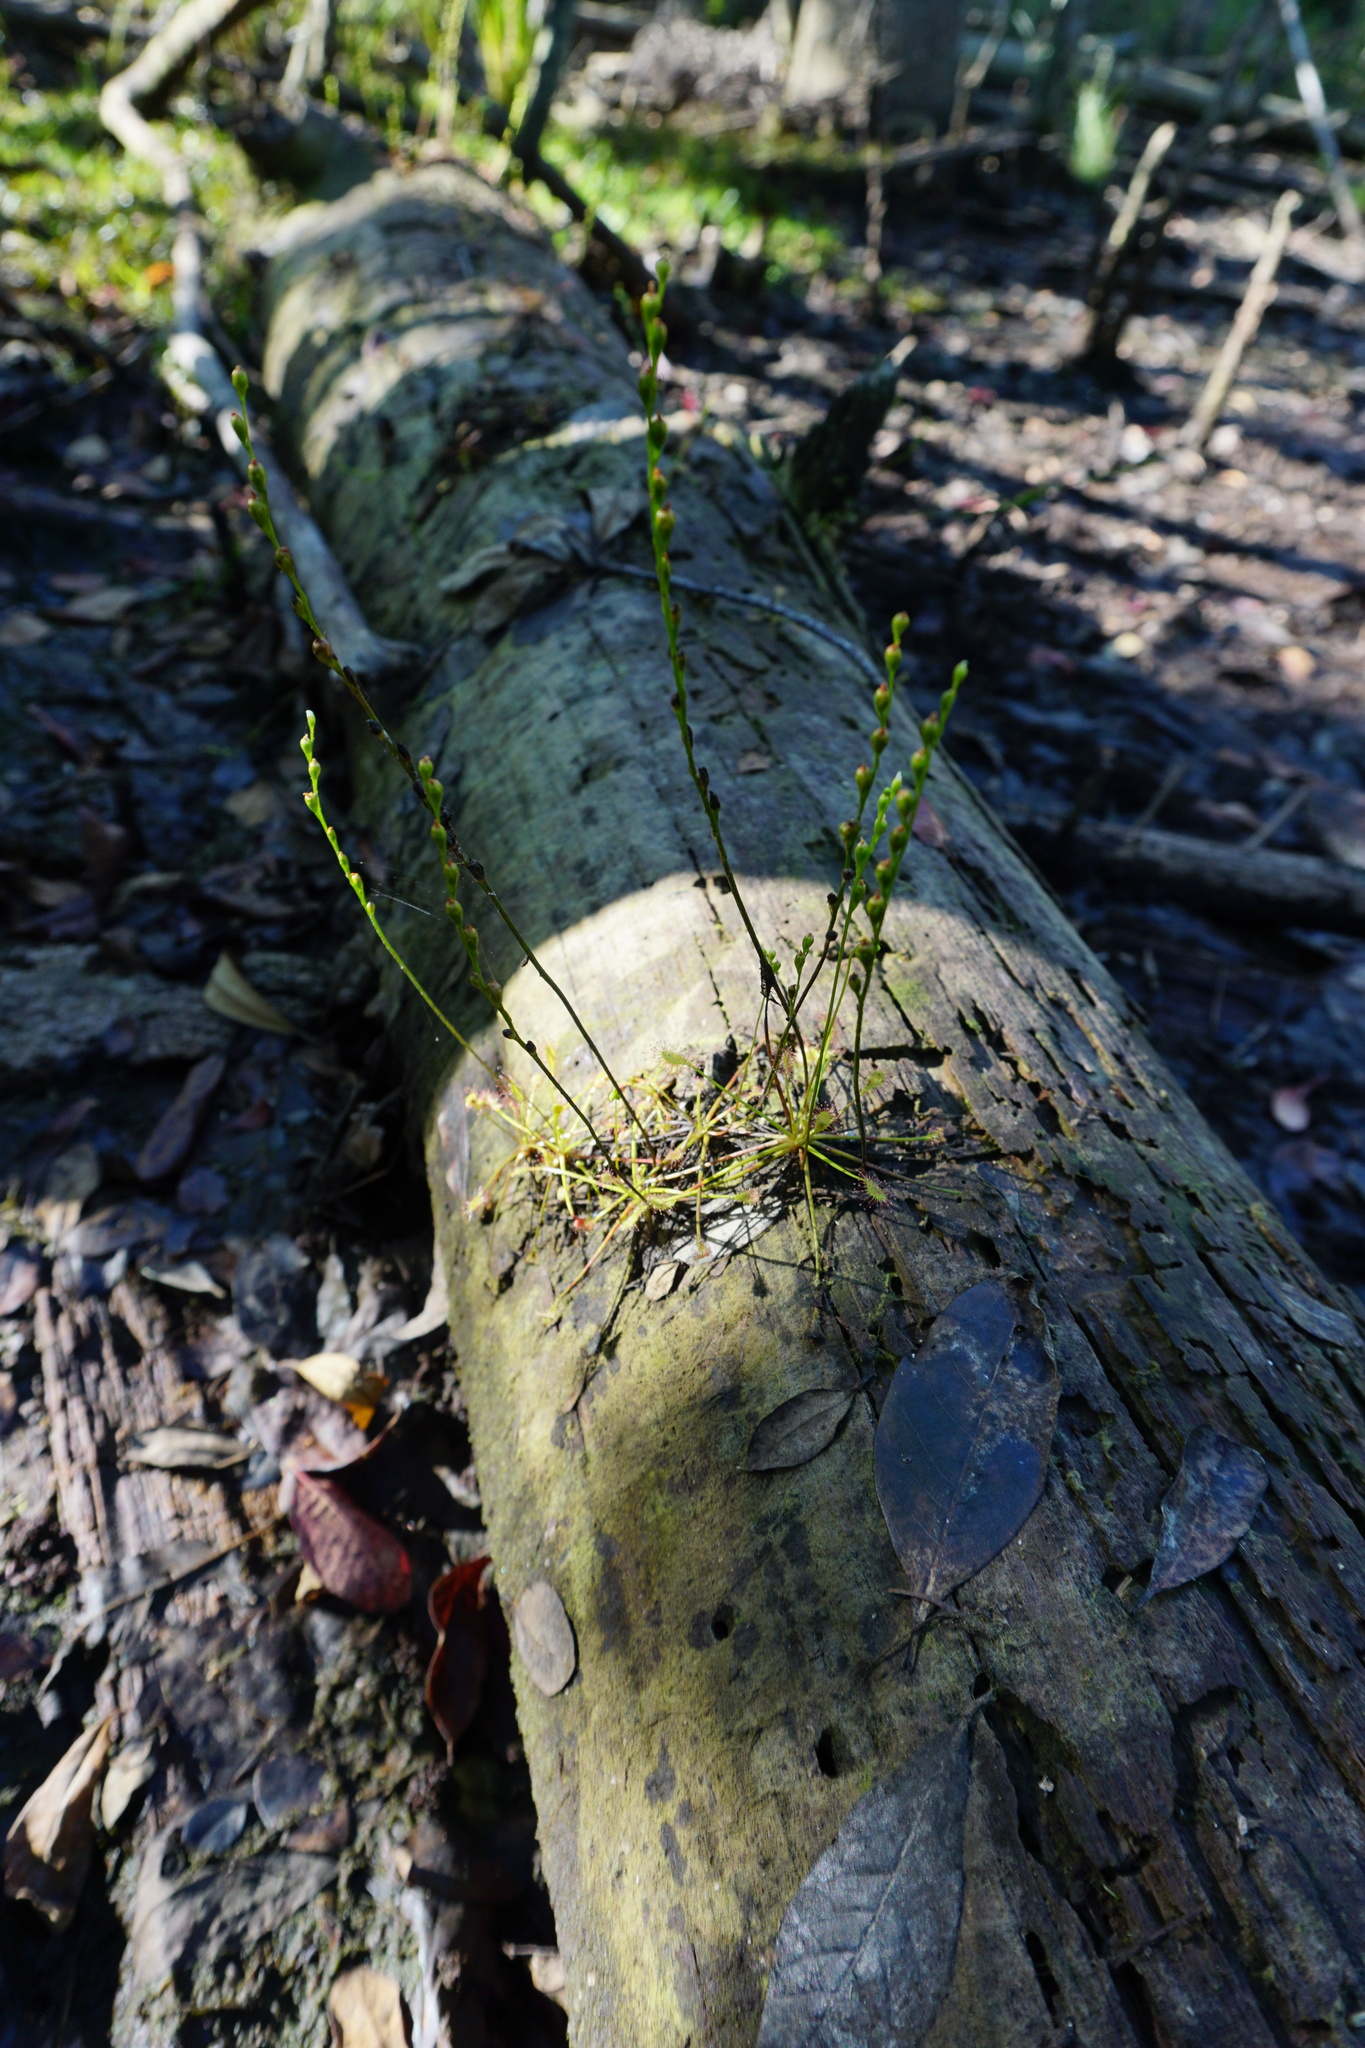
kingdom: Plantae
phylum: Tracheophyta
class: Magnoliopsida
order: Caryophyllales
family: Droseraceae
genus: Drosera
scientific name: Drosera intermedia
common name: Oblong-leaved sundew
